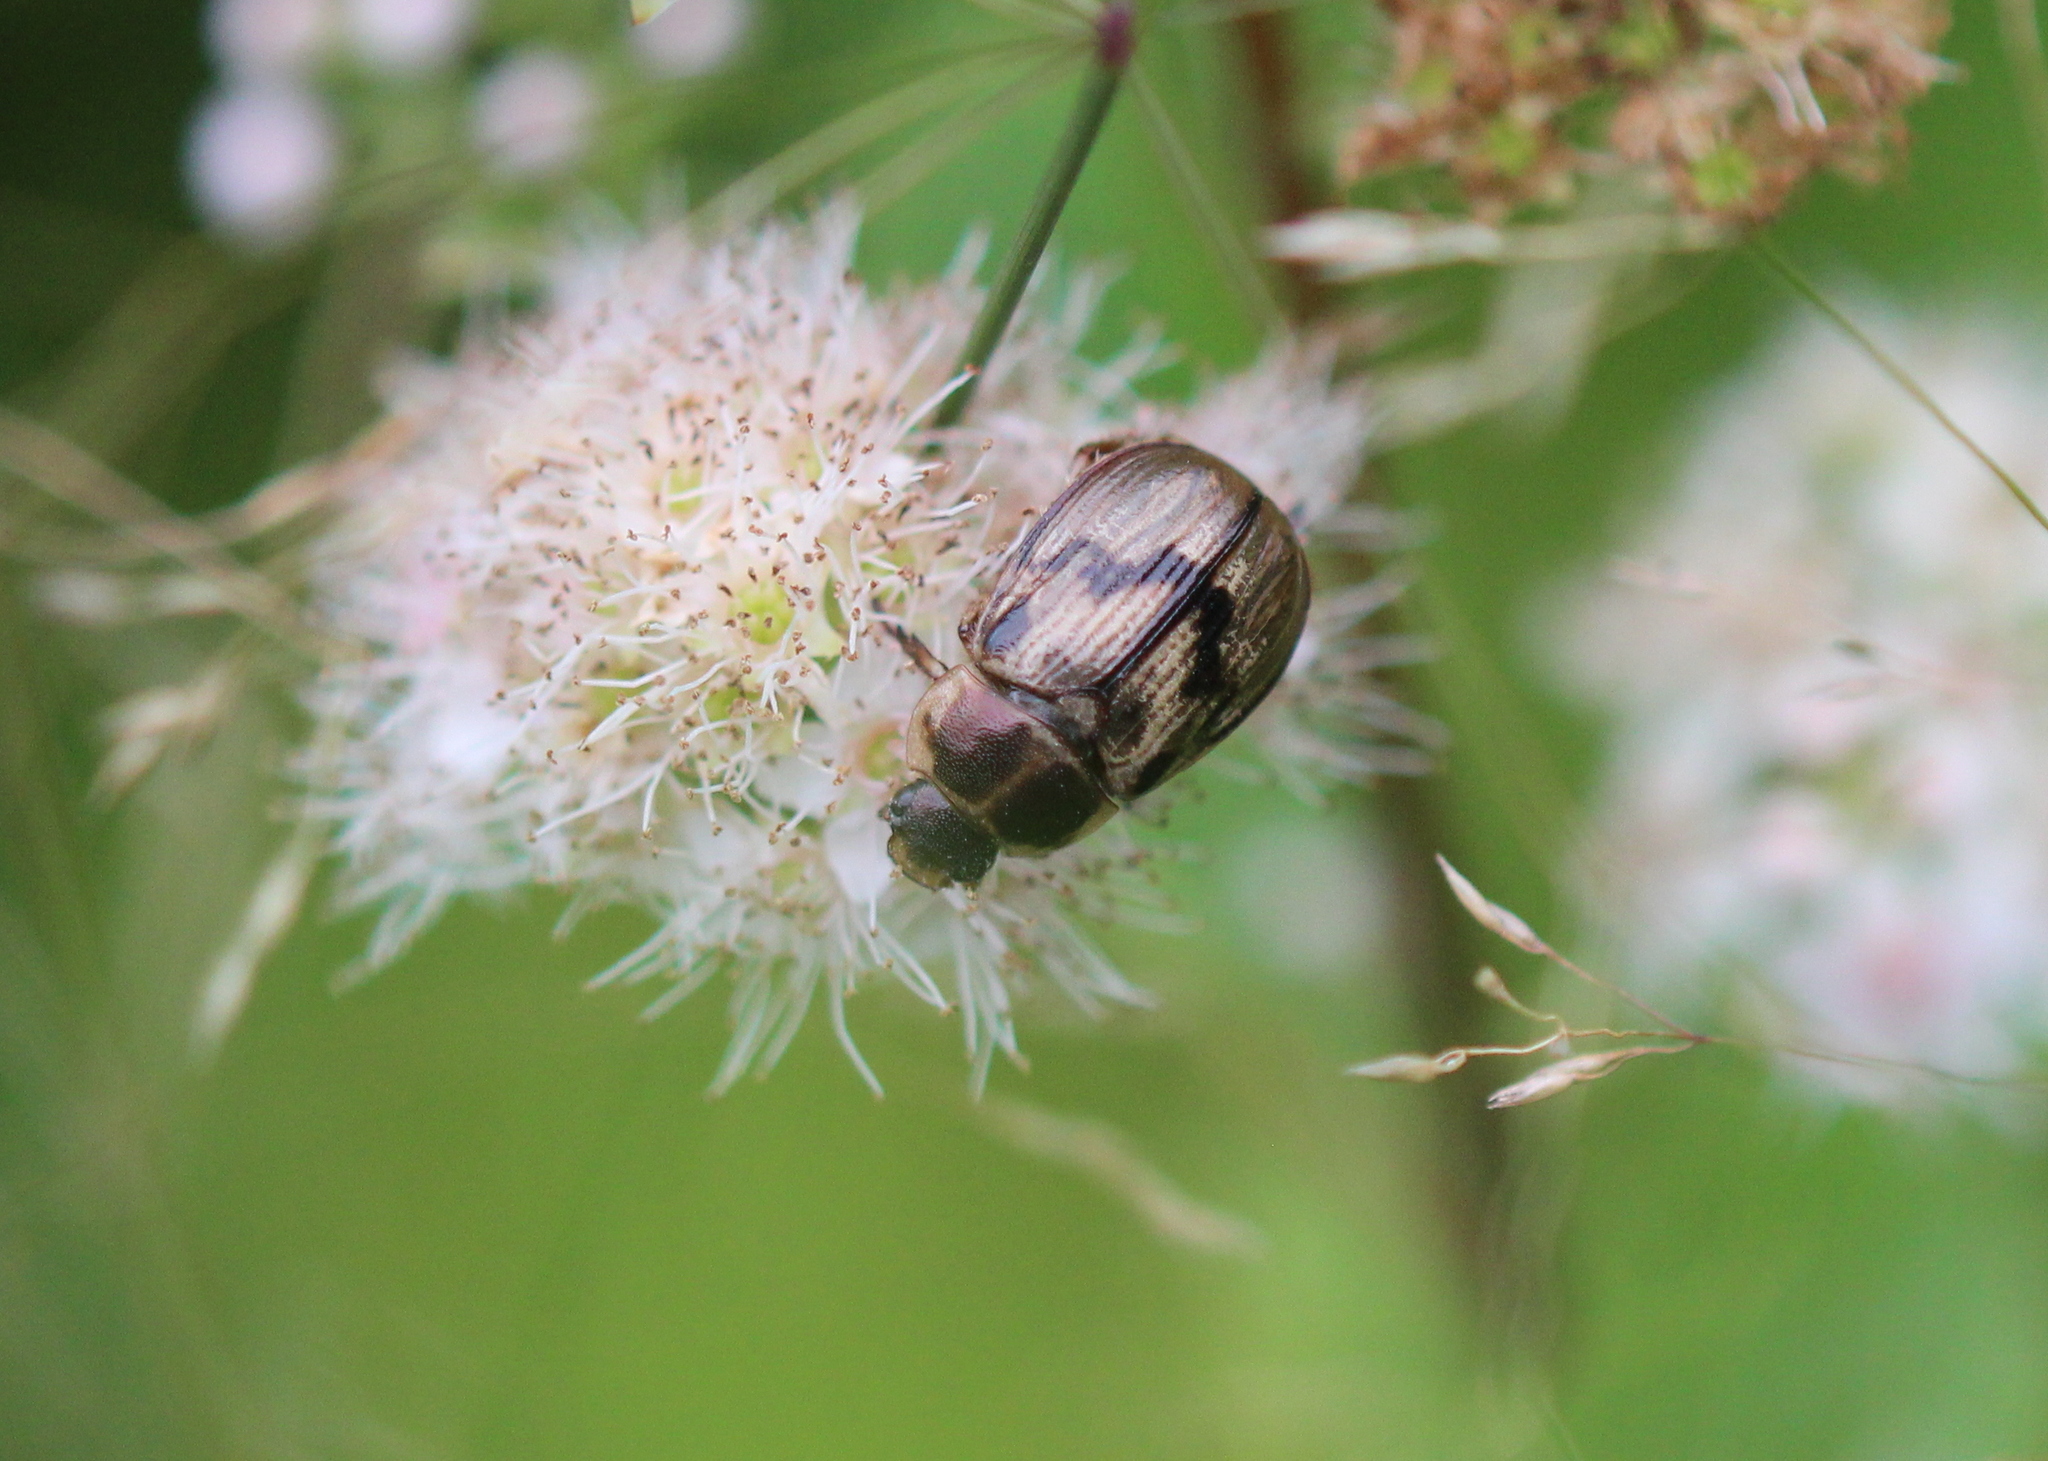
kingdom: Animalia
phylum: Arthropoda
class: Insecta
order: Coleoptera
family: Scarabaeidae
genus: Exomala
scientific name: Exomala orientalis
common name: Oriental beetle
